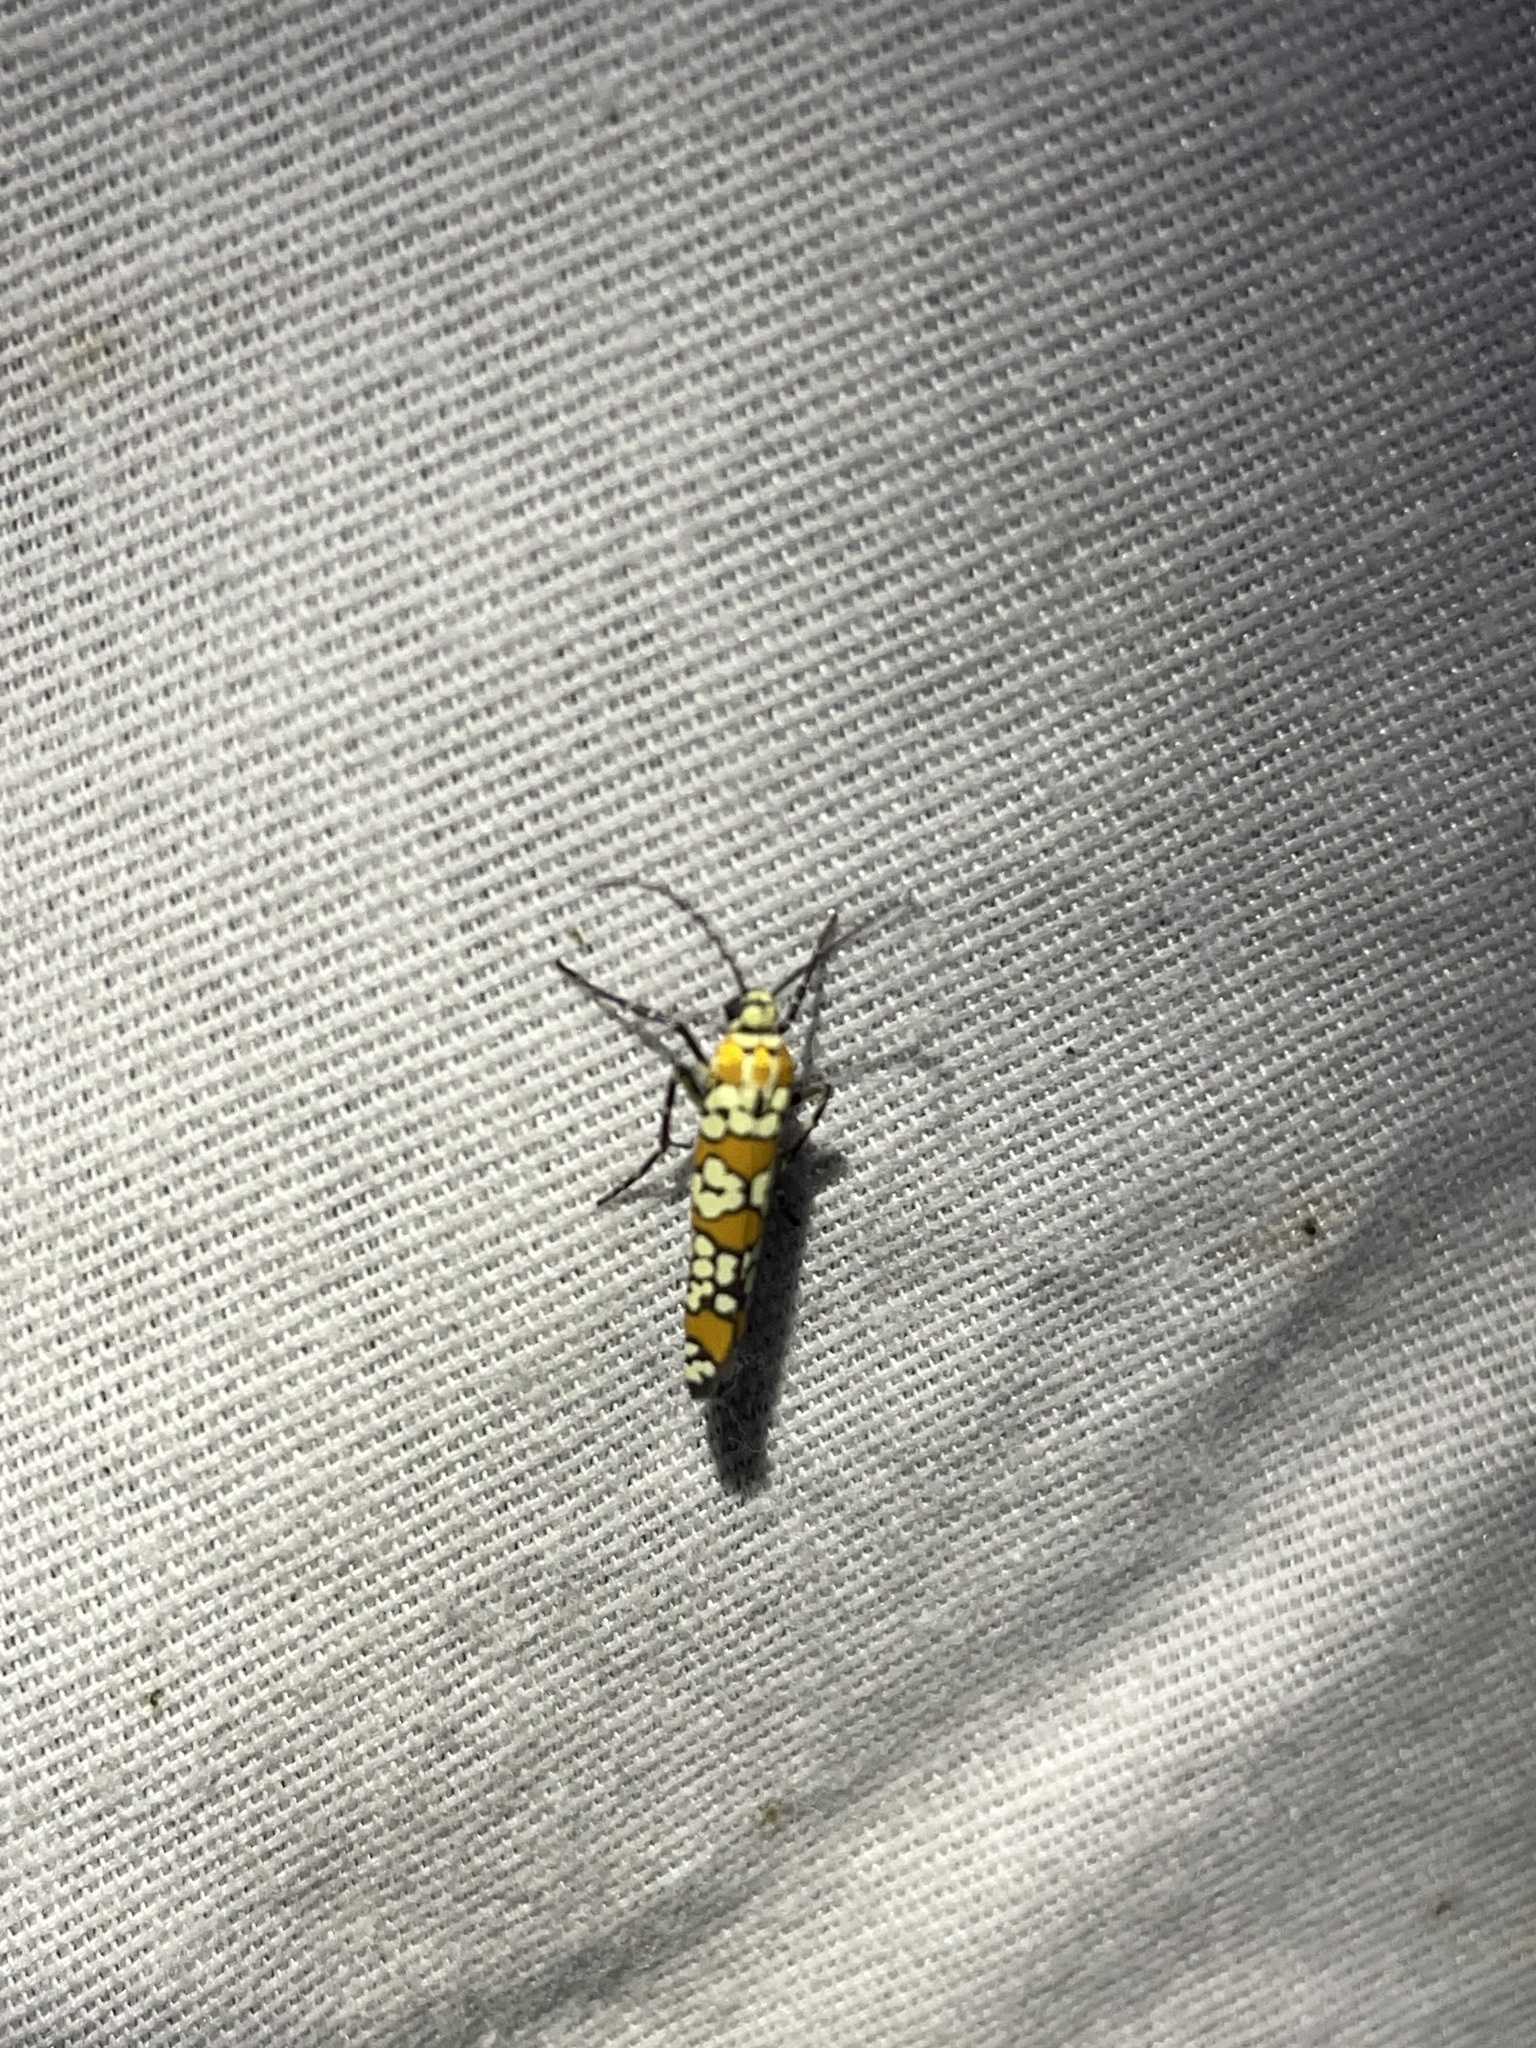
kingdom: Animalia
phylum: Arthropoda
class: Insecta
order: Lepidoptera
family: Attevidae
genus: Atteva
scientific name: Atteva punctella
